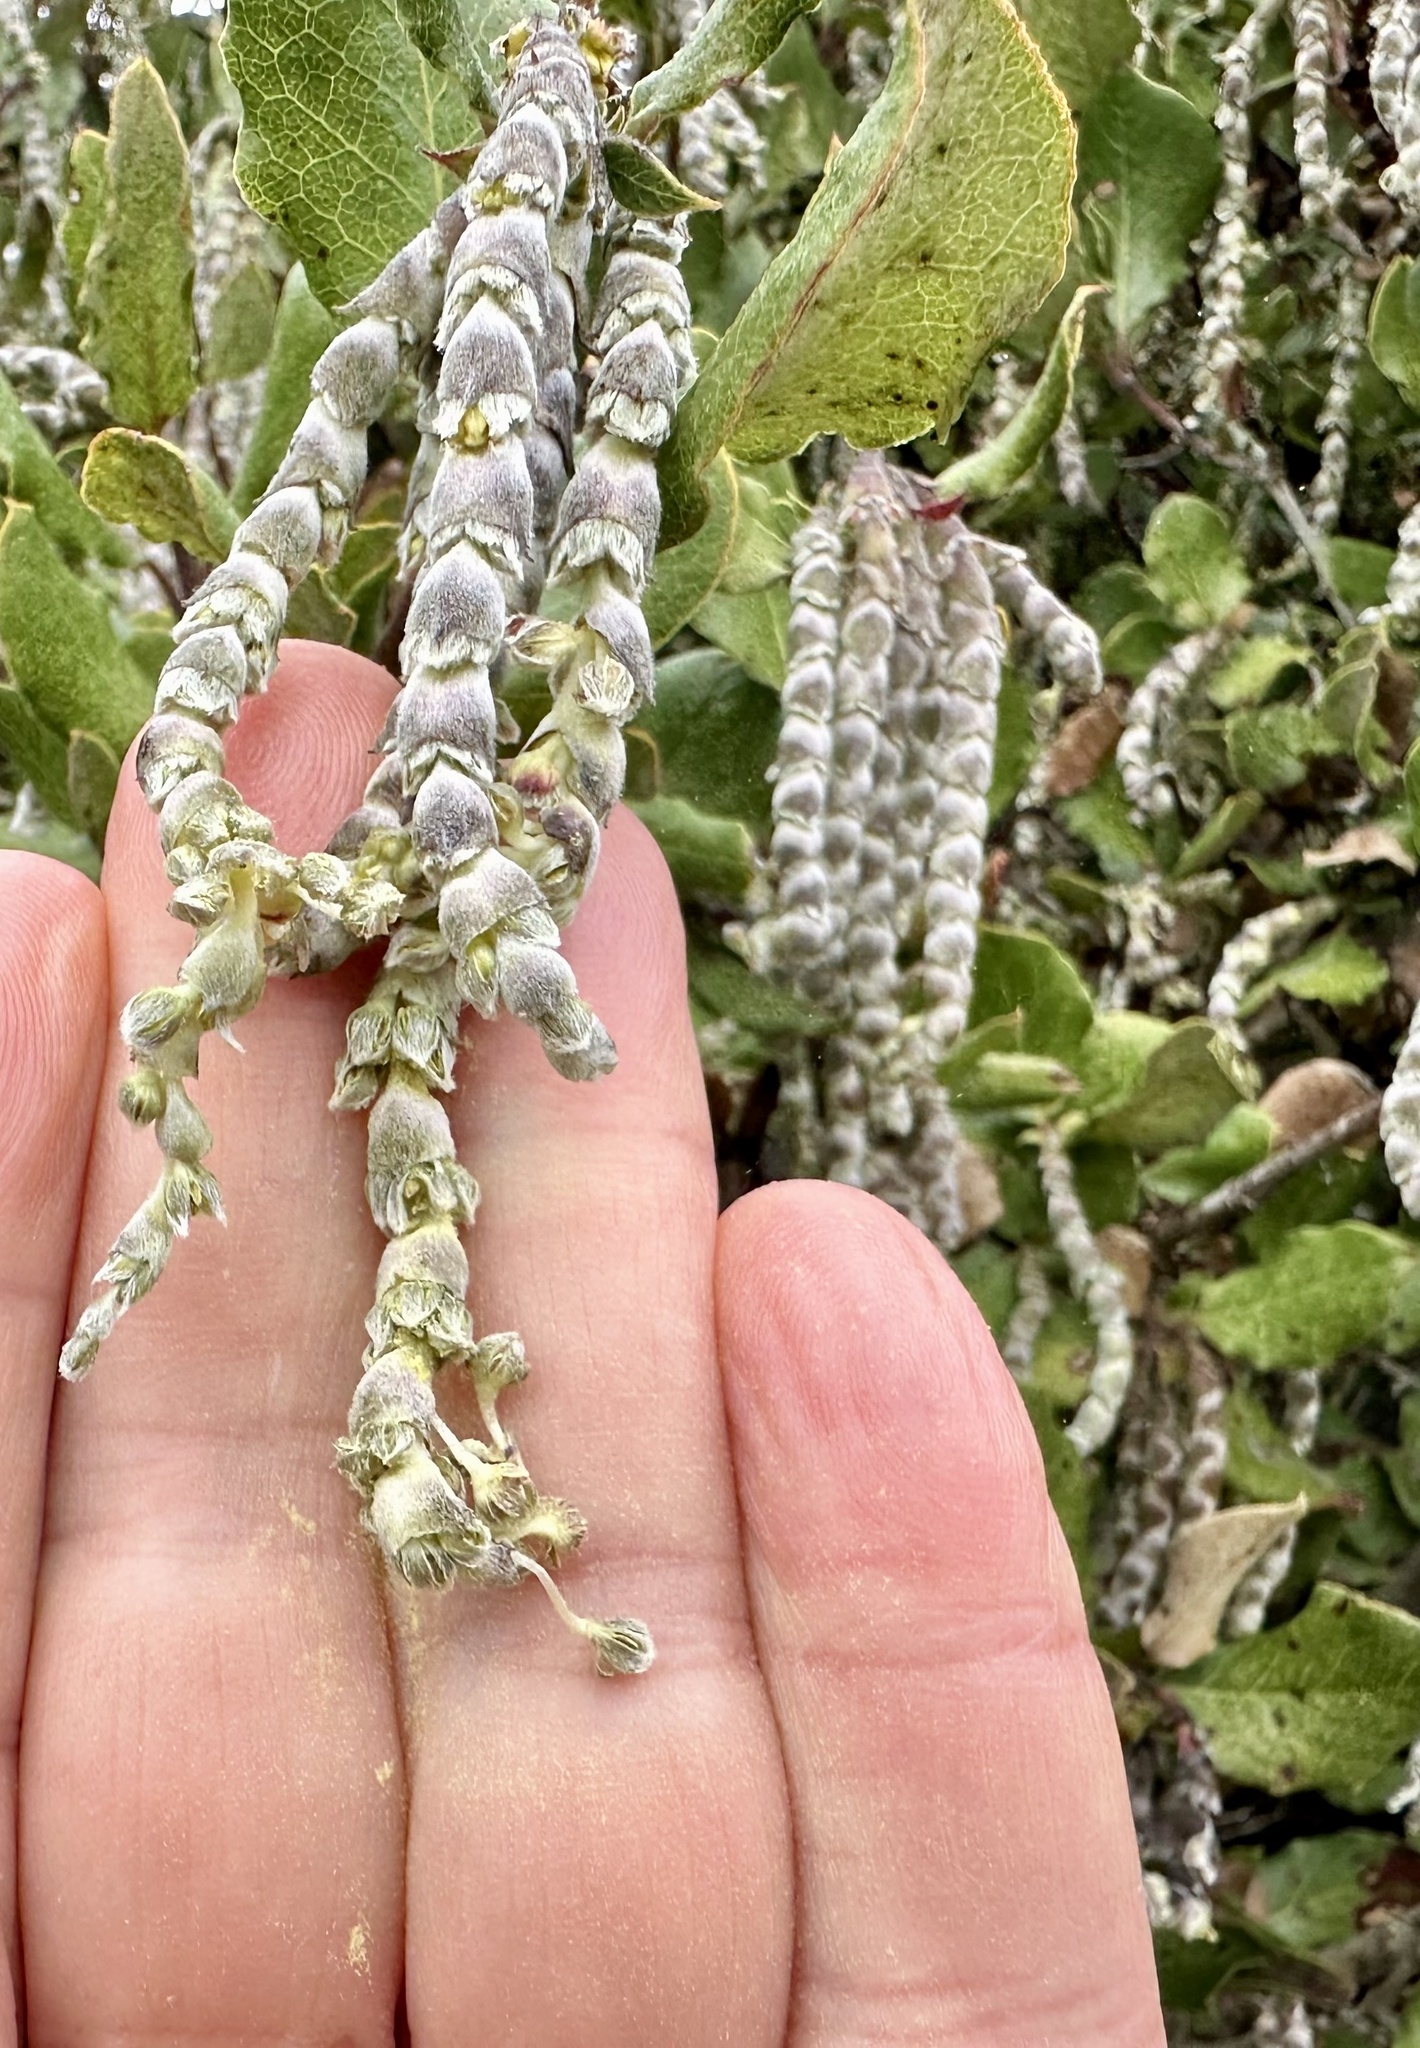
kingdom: Plantae
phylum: Tracheophyta
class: Magnoliopsida
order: Garryales
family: Garryaceae
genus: Garrya
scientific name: Garrya elliptica
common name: Silk-tassel
